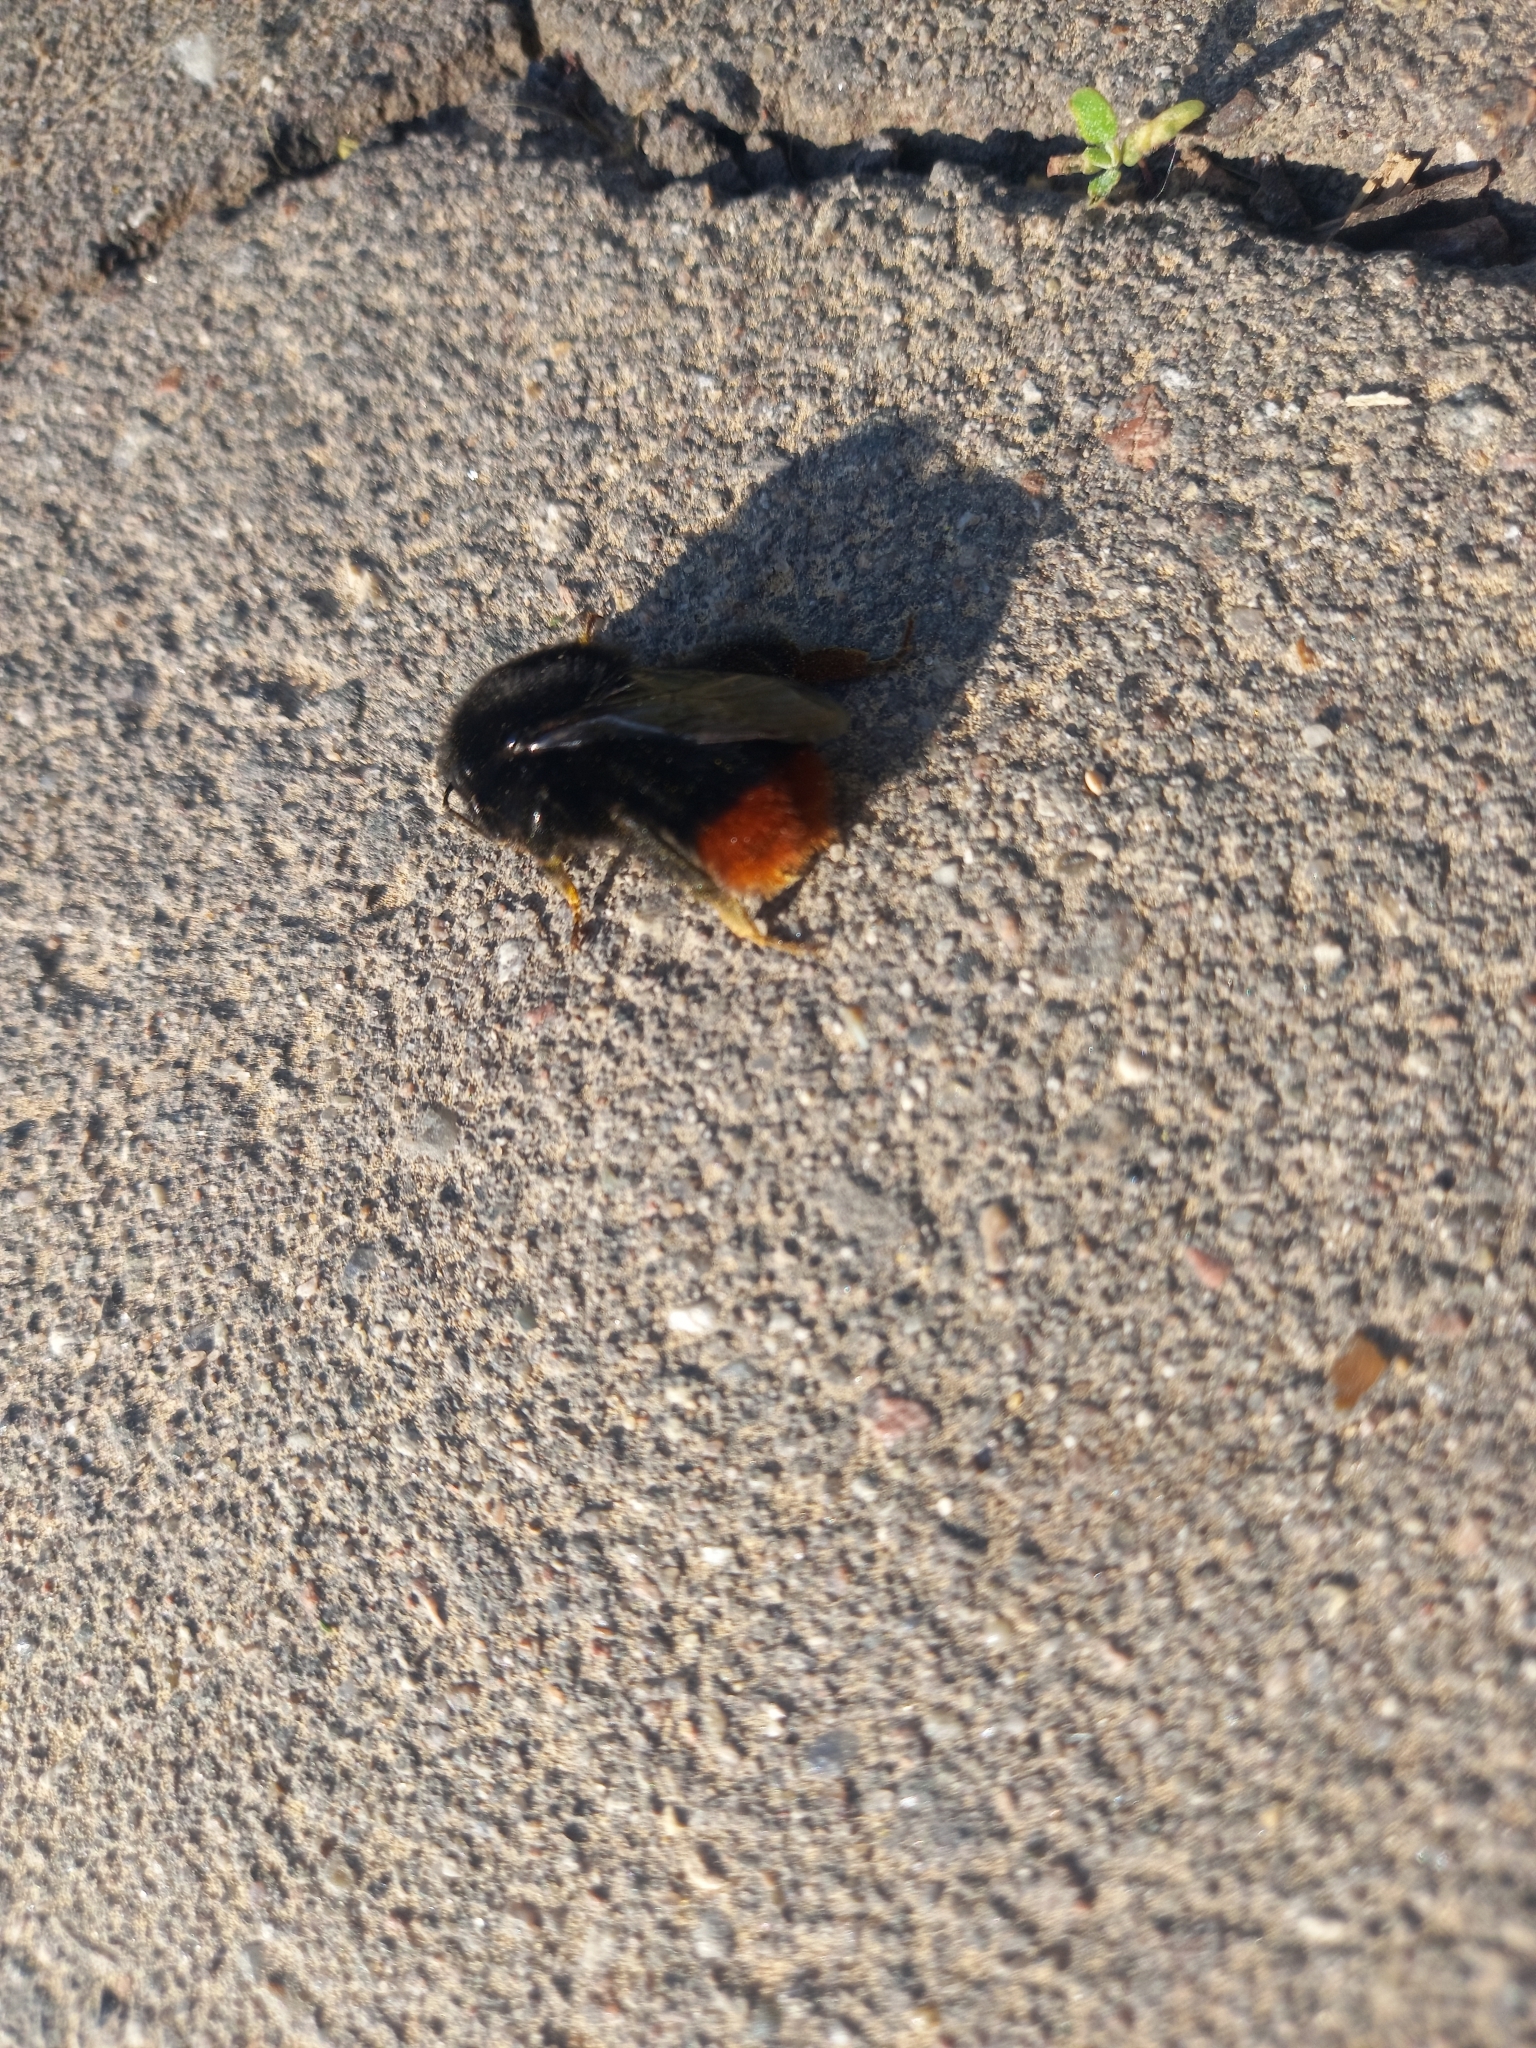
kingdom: Animalia
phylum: Arthropoda
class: Insecta
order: Hymenoptera
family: Apidae
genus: Bombus
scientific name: Bombus lapidarius
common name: Large red-tailed humble-bee
